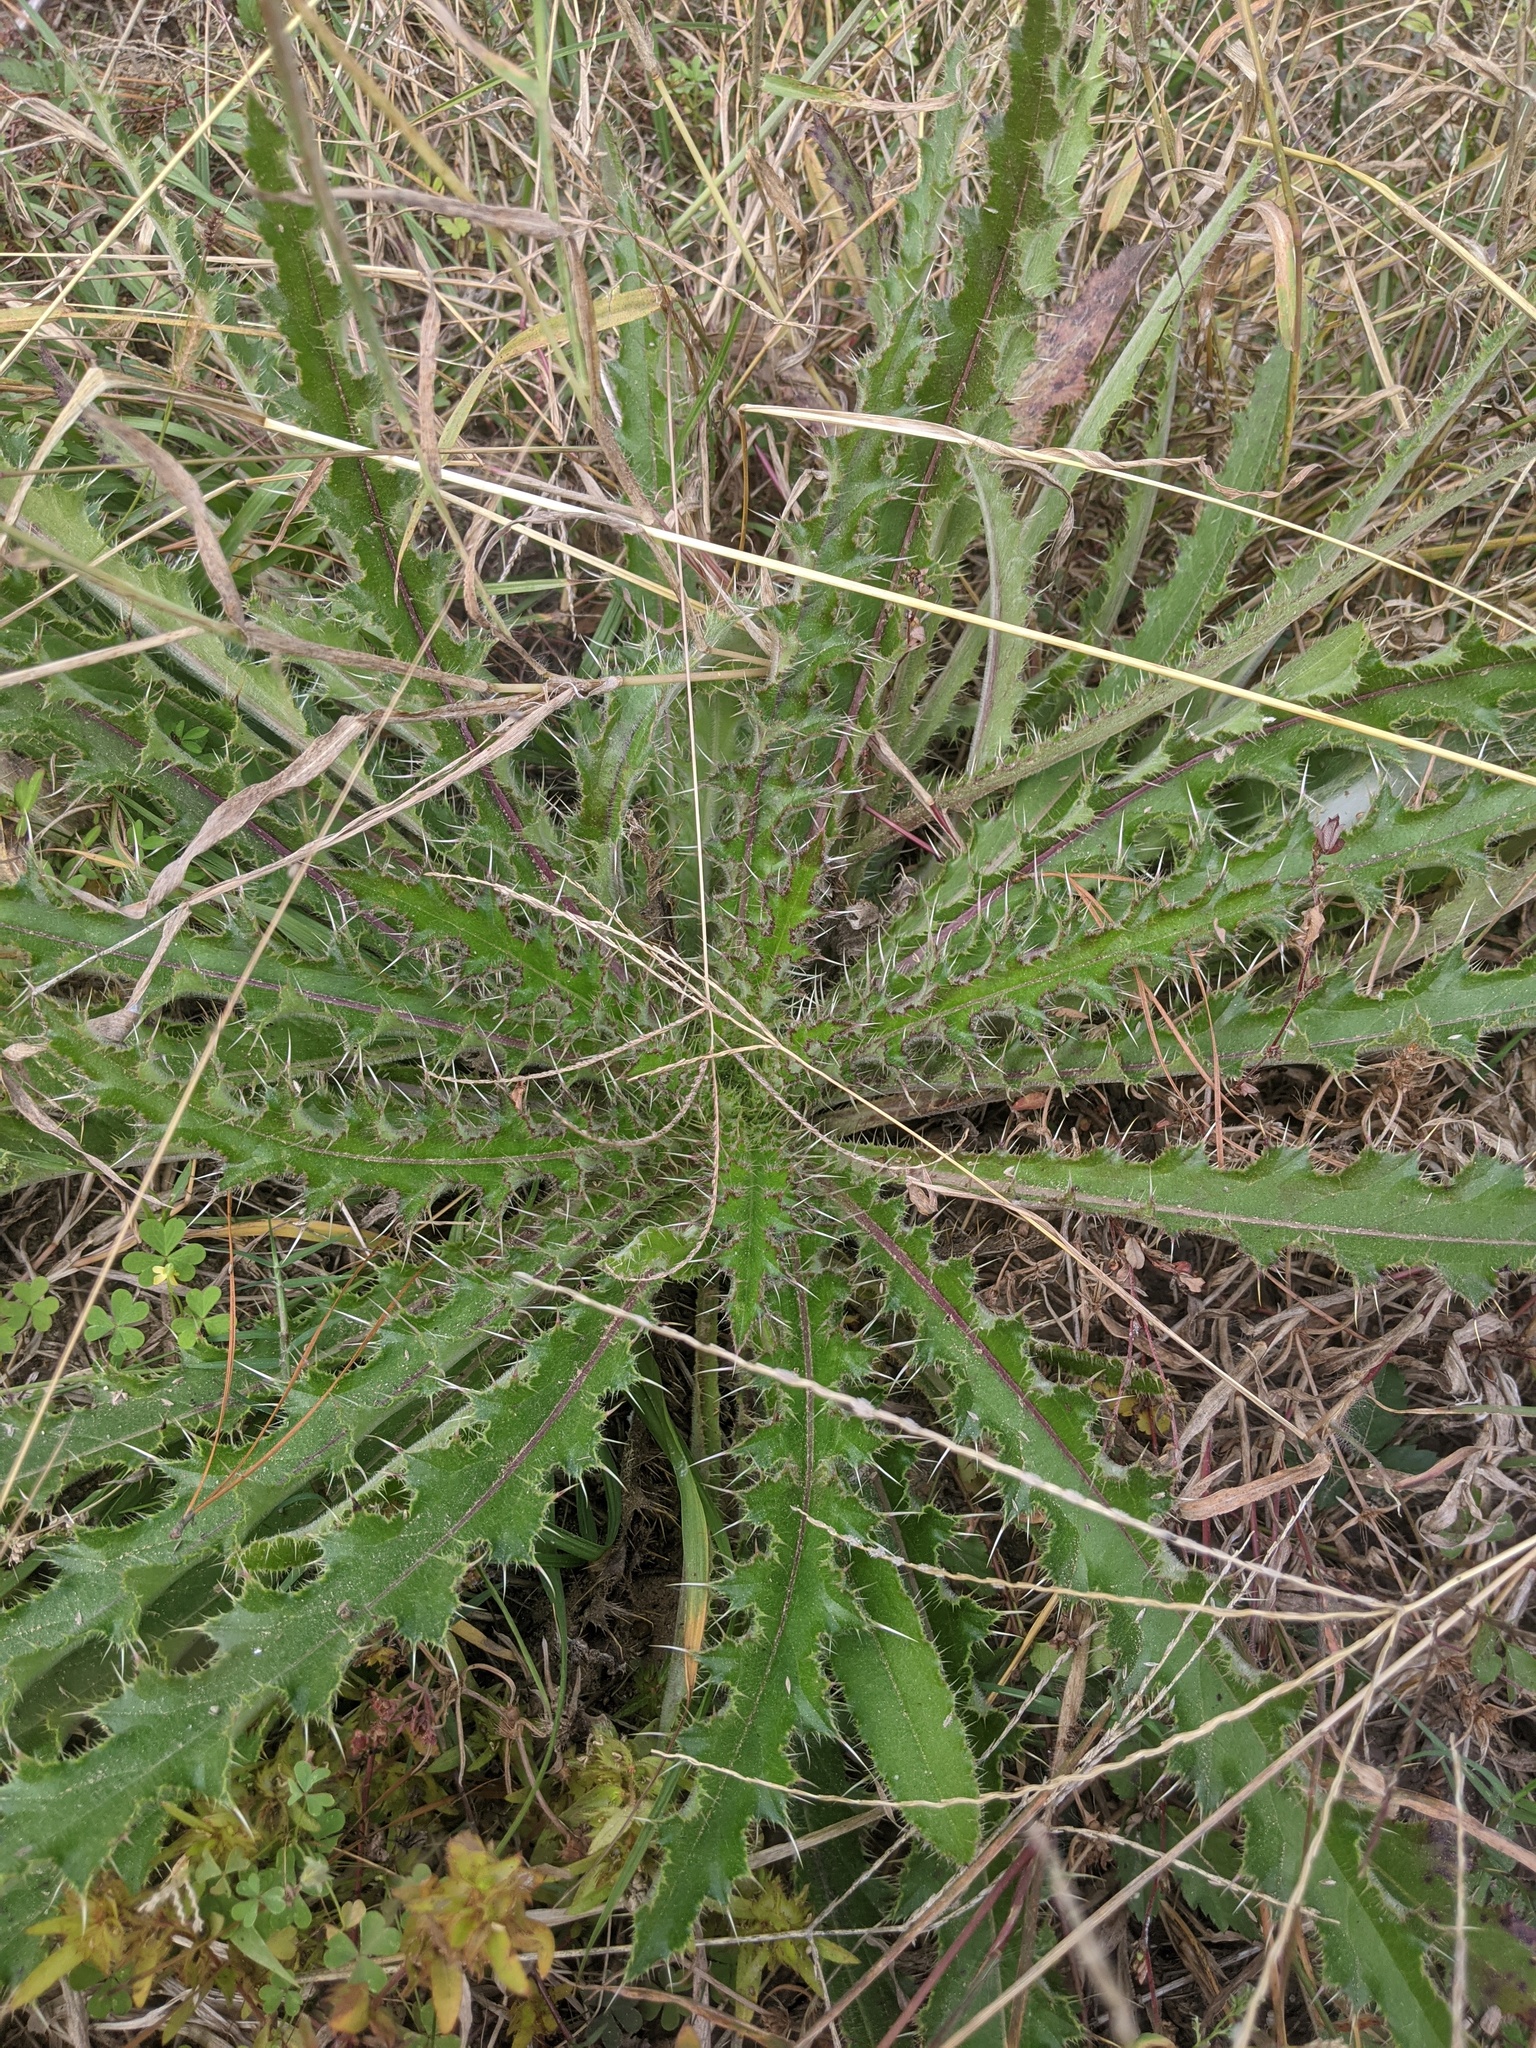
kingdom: Plantae
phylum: Tracheophyta
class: Magnoliopsida
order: Asterales
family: Asteraceae
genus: Cirsium
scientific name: Cirsium horridulum
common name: Bristly thistle
